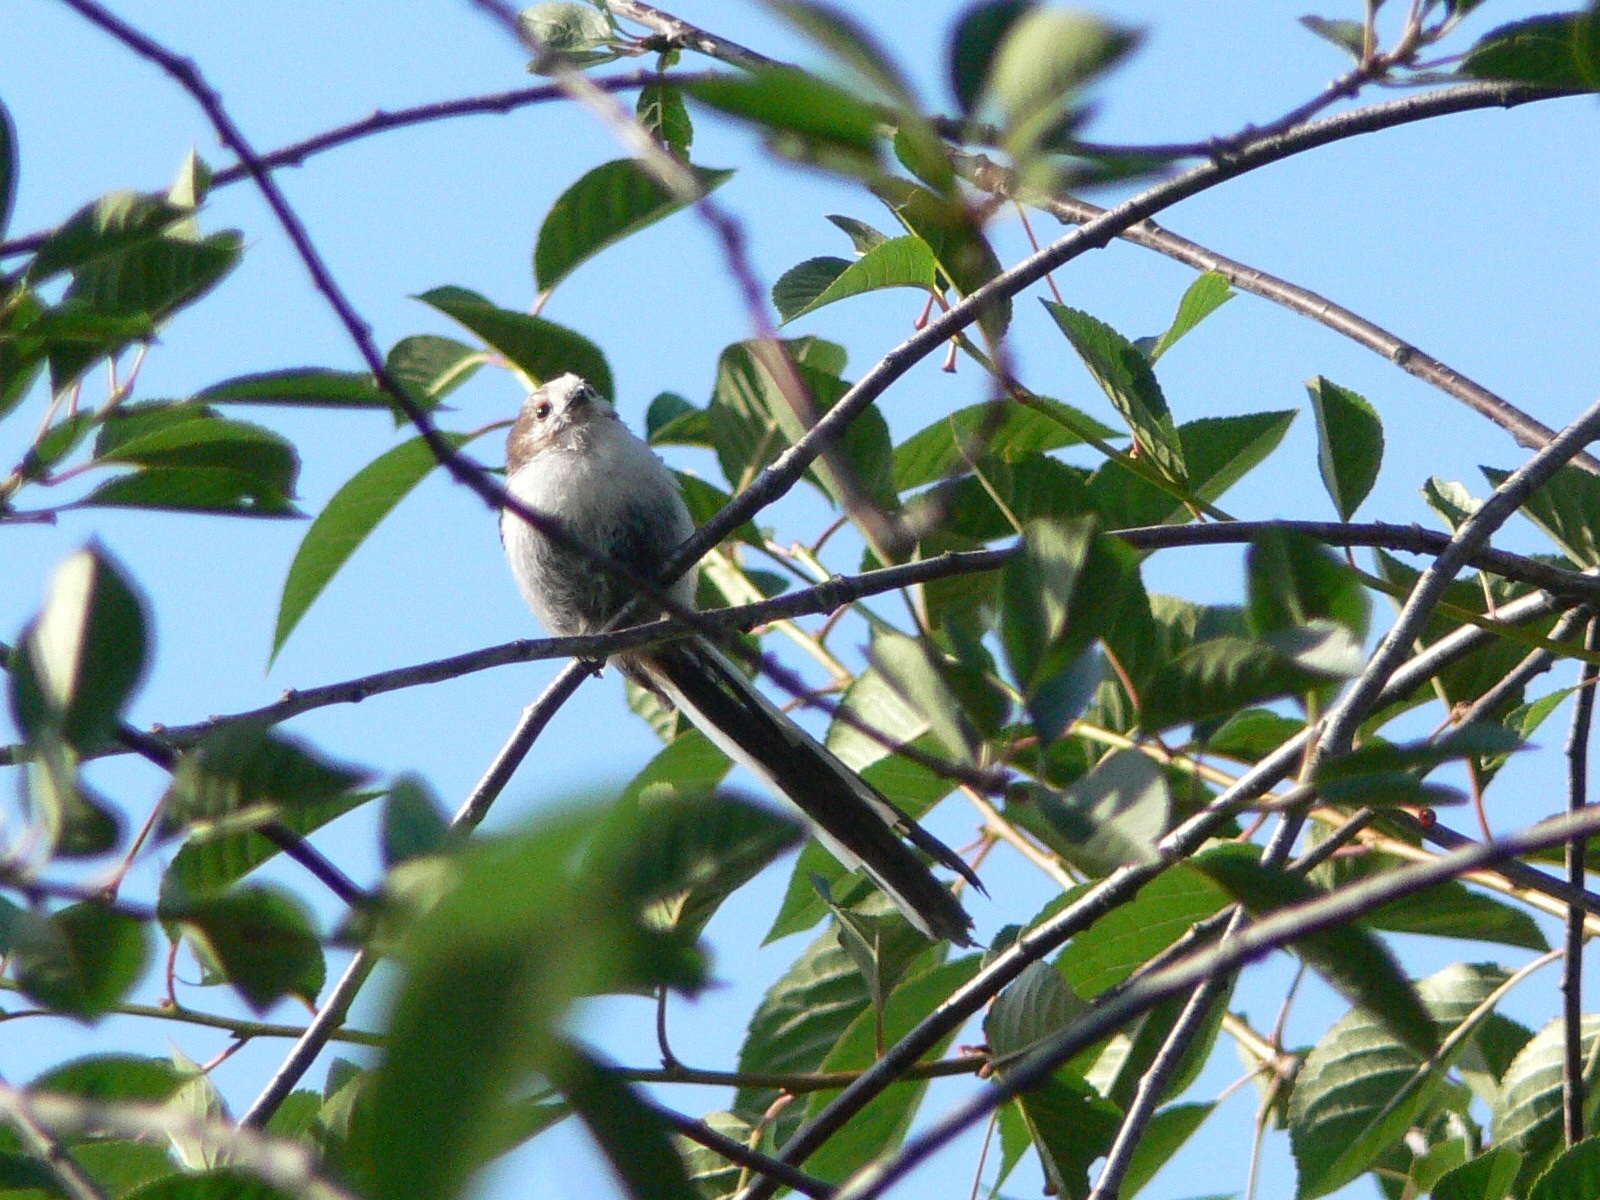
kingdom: Animalia
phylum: Chordata
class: Aves
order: Passeriformes
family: Aegithalidae
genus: Aegithalos
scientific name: Aegithalos caudatus
